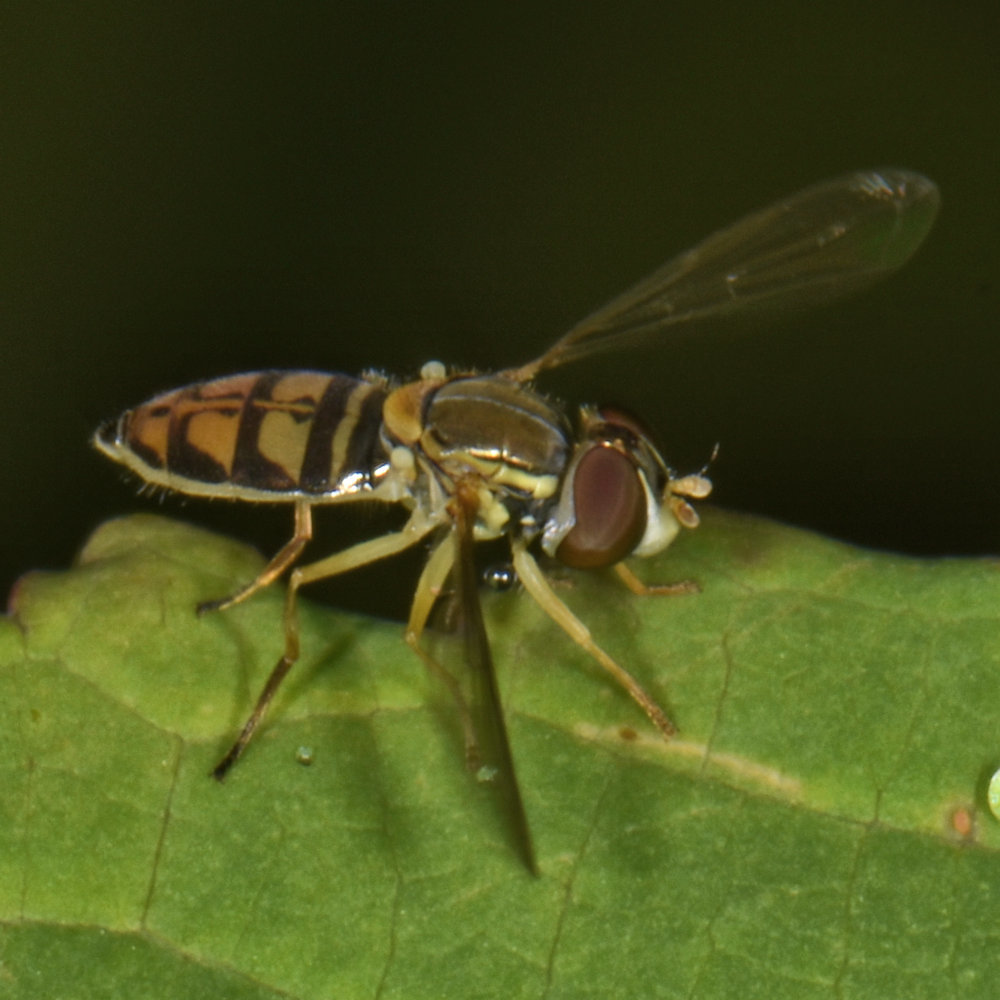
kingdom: Animalia
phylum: Arthropoda
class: Insecta
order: Diptera
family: Syrphidae
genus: Toxomerus
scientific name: Toxomerus marginatus
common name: Syrphid fly
